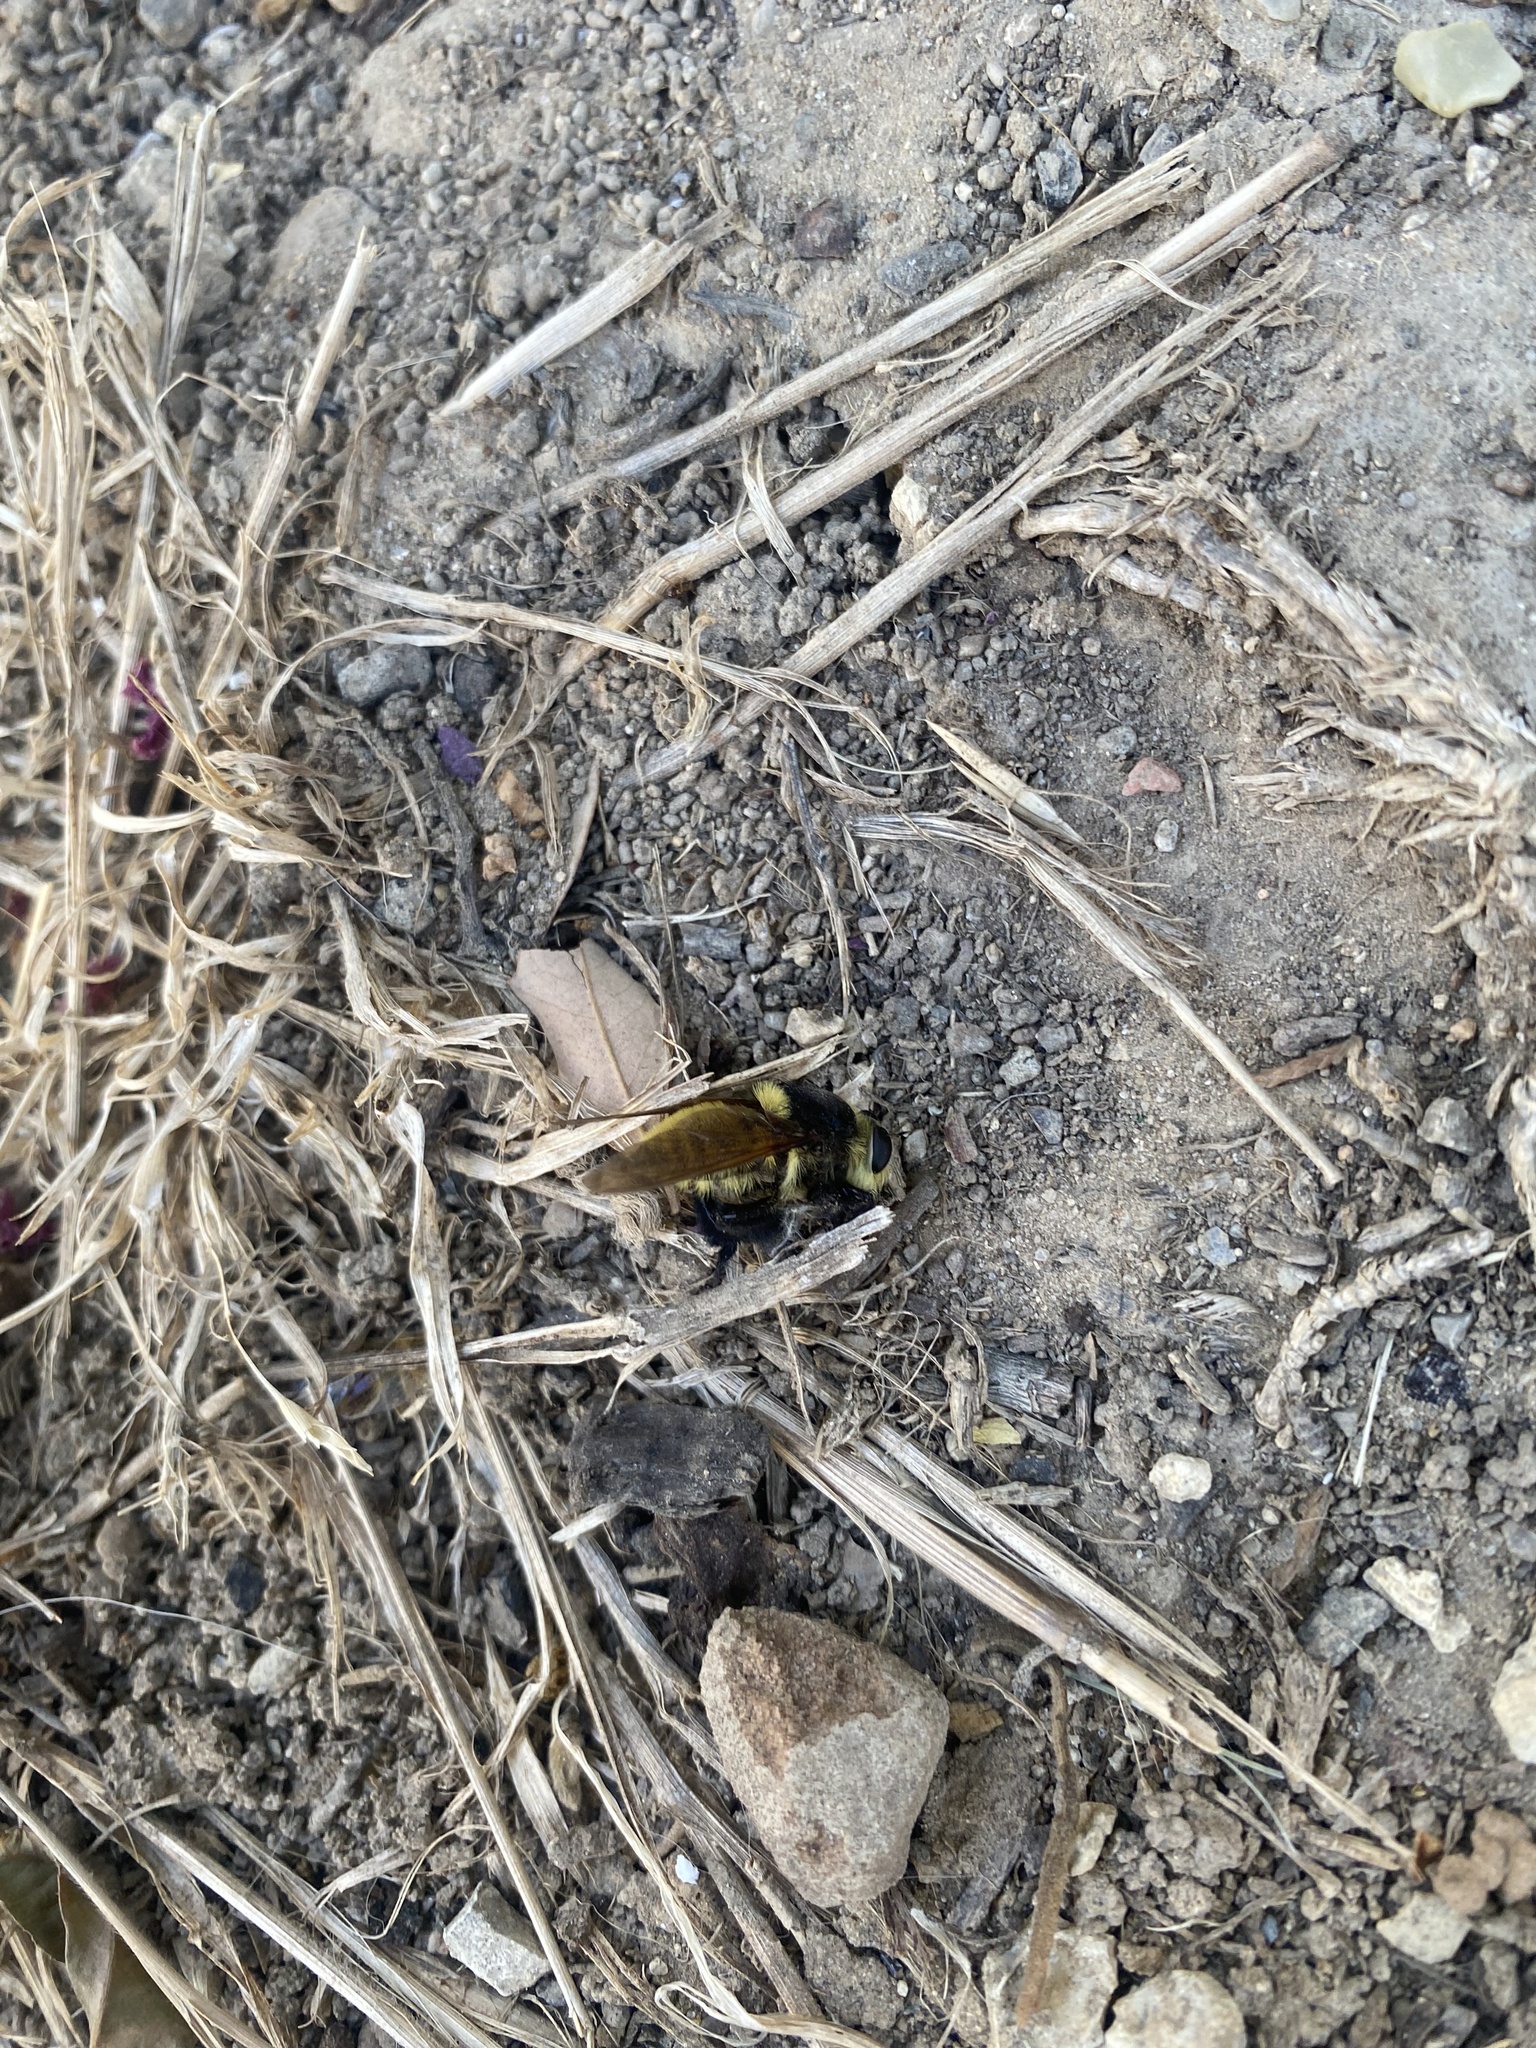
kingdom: Animalia
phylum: Arthropoda
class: Insecta
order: Diptera
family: Asilidae
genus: Mallophora
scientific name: Mallophora fautrix
